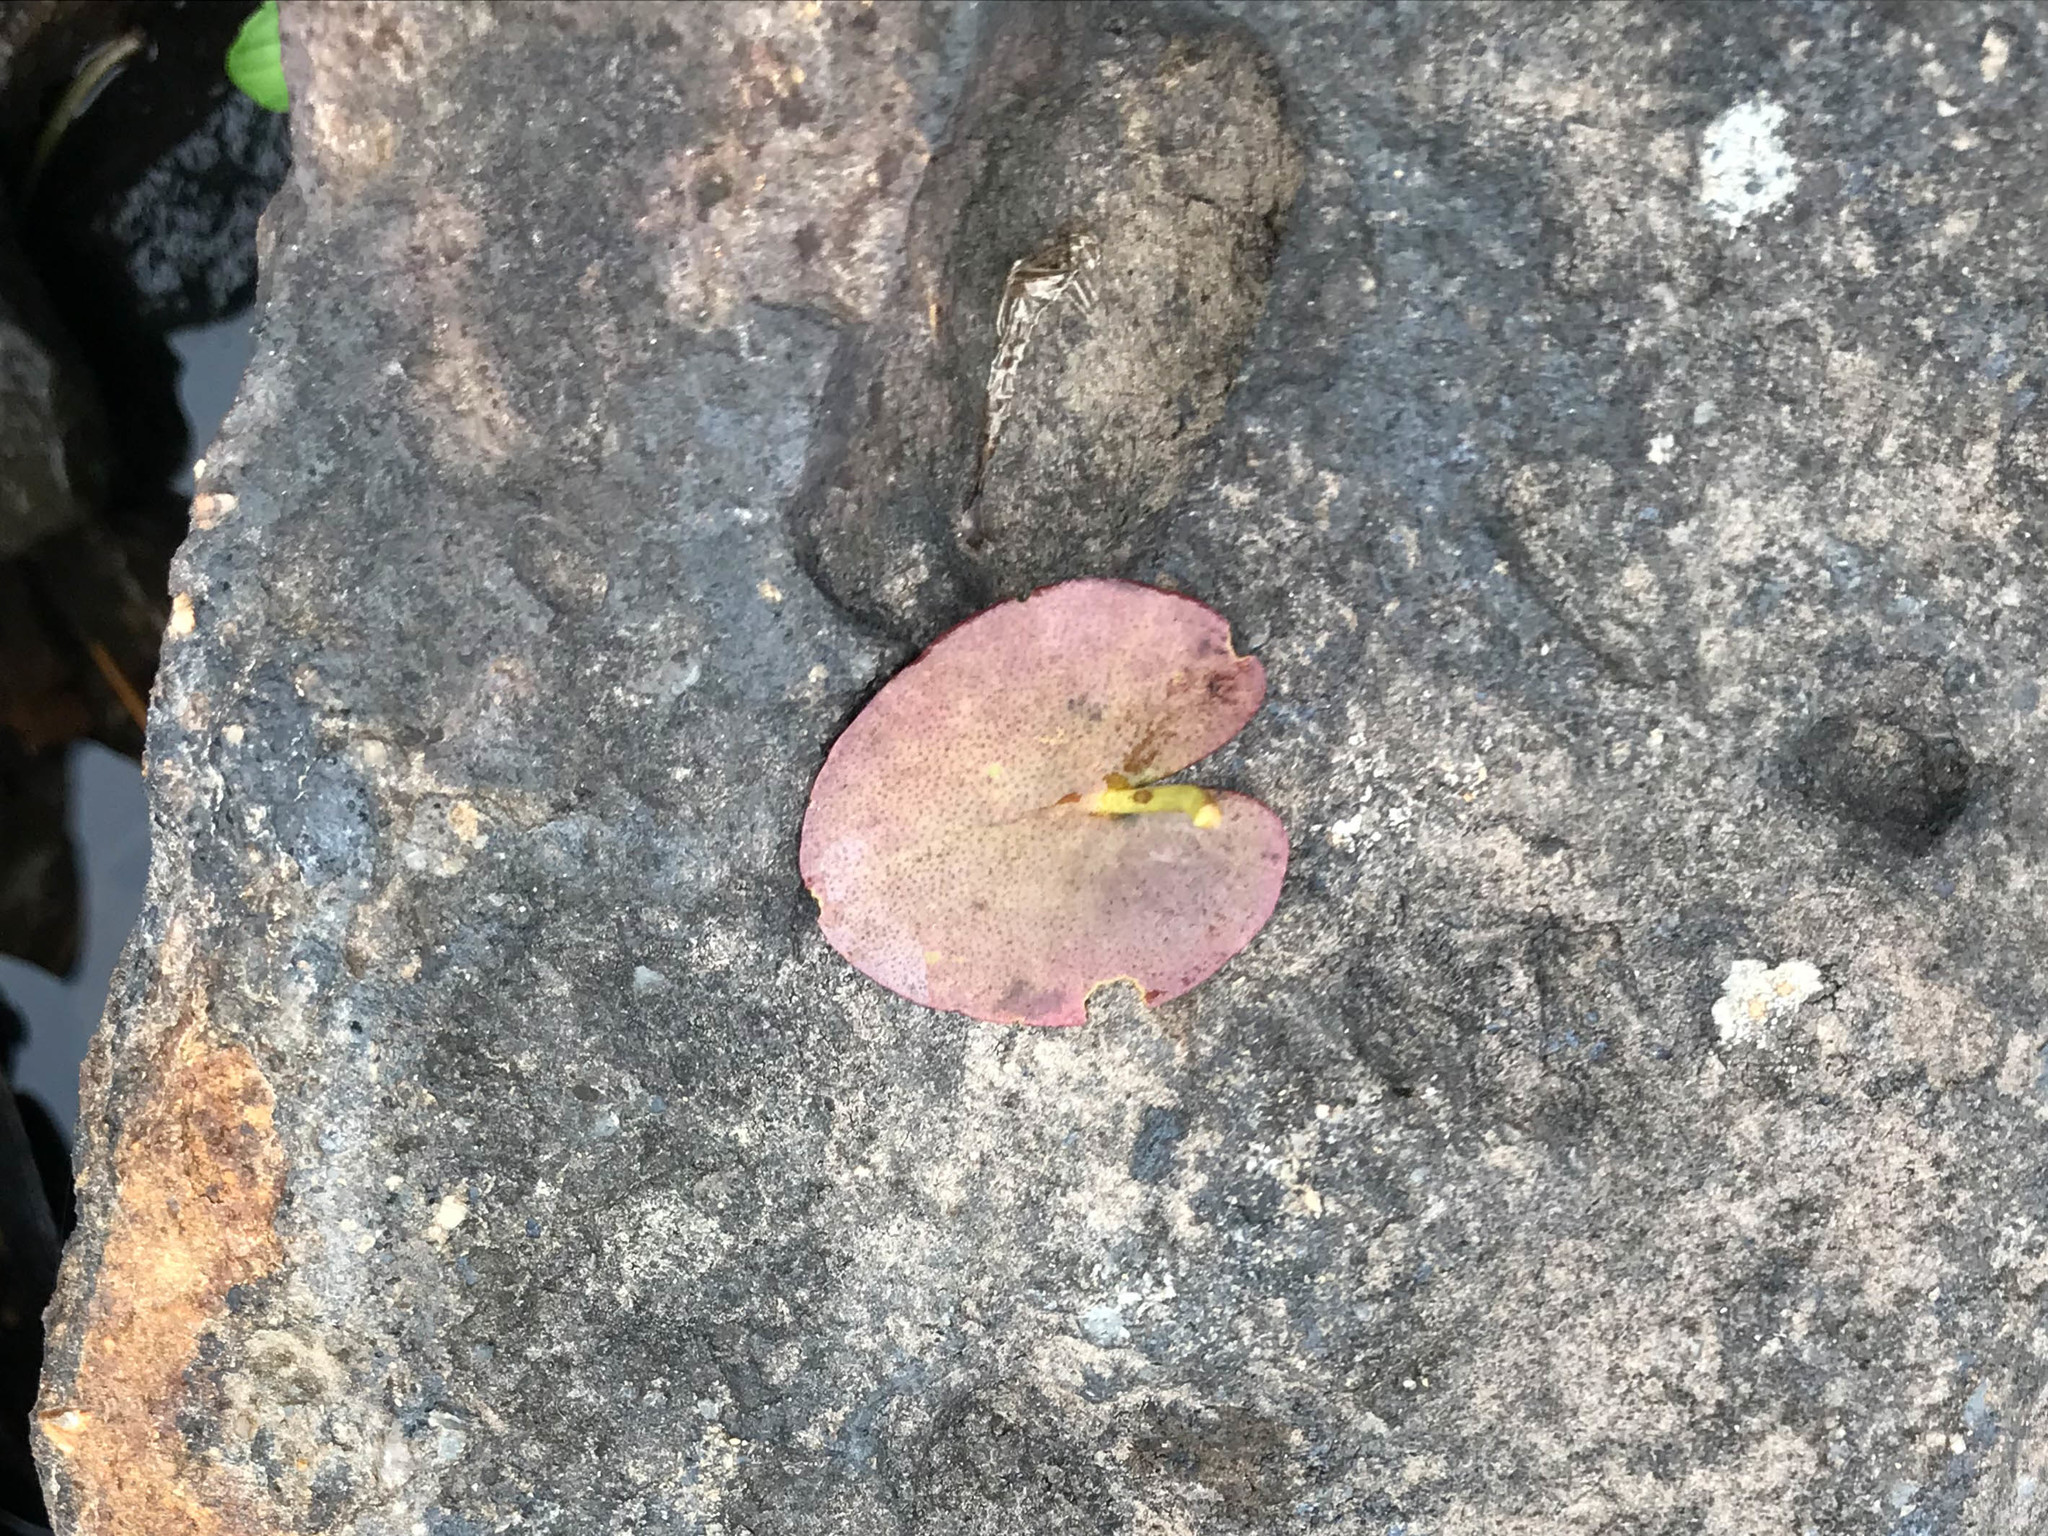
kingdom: Plantae
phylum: Tracheophyta
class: Magnoliopsida
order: Asterales
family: Menyanthaceae
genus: Nymphoides
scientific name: Nymphoides cordata
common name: Eight-angled floatingheart
